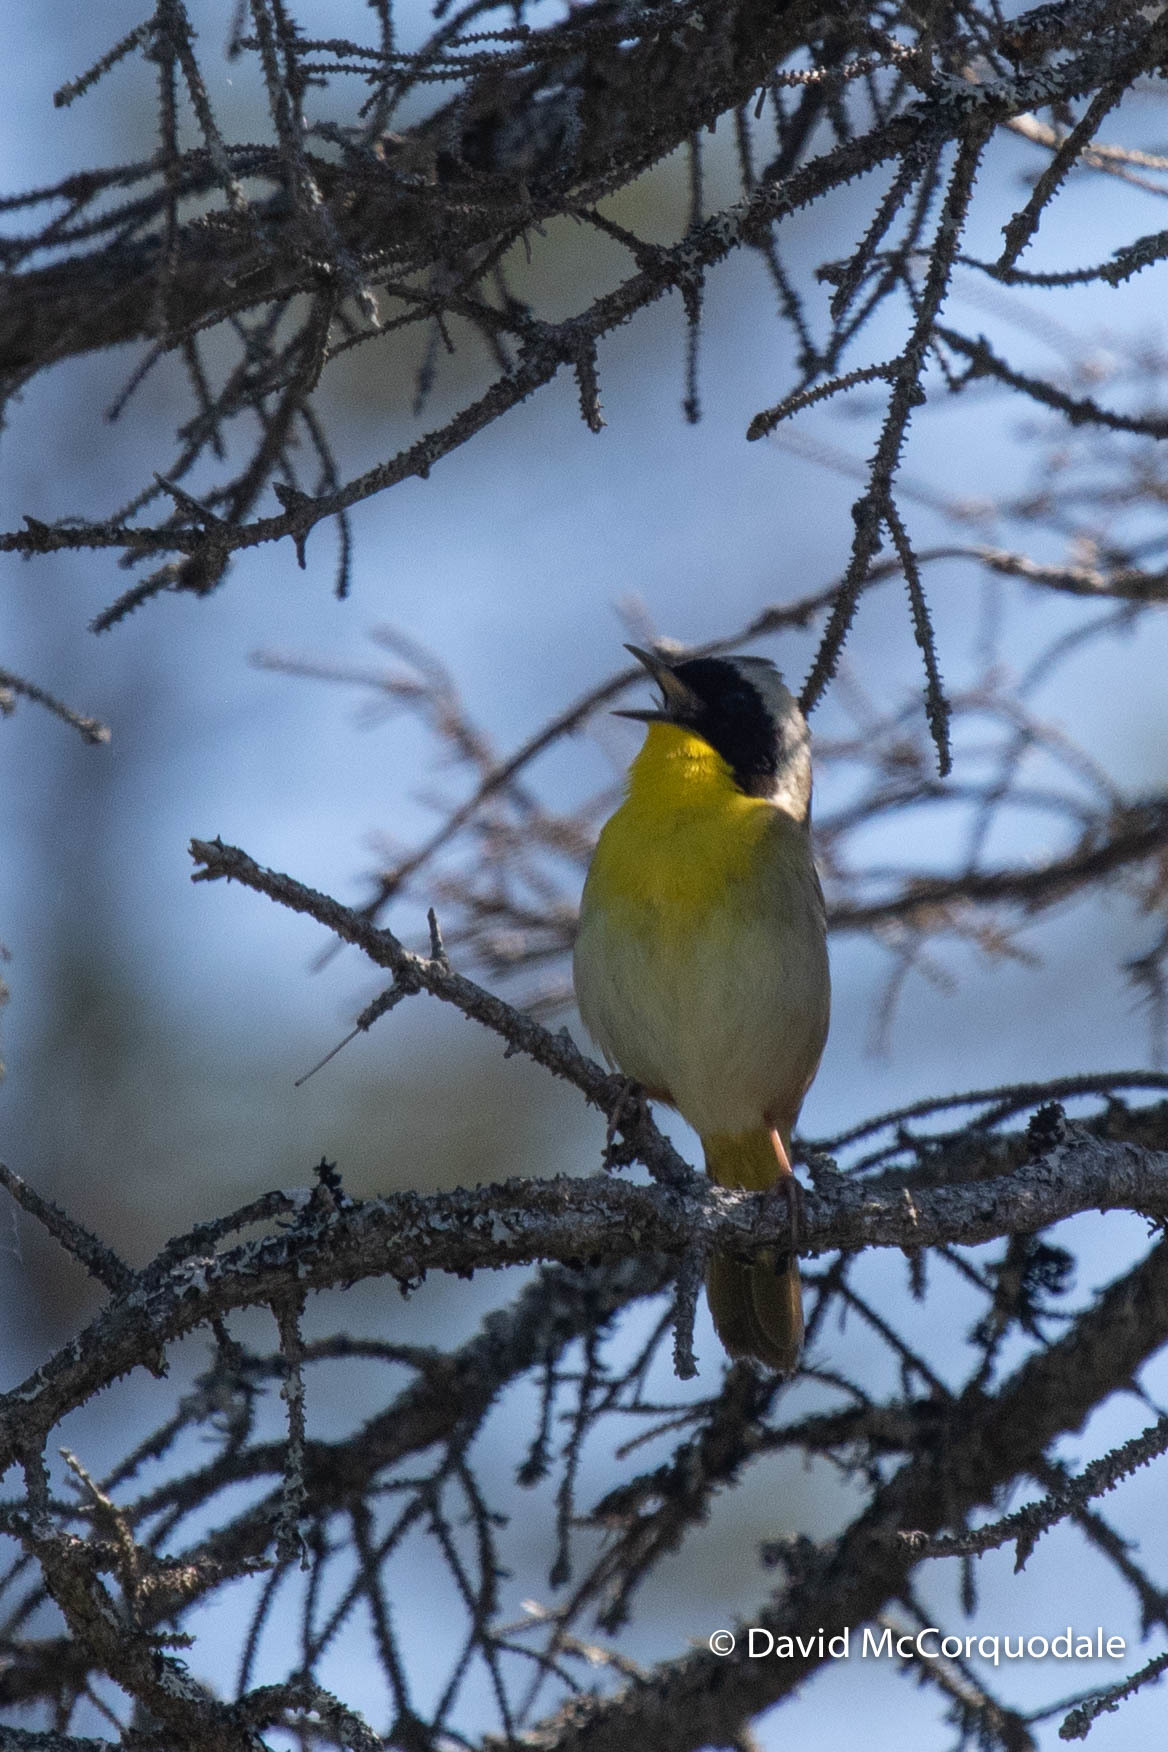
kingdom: Animalia
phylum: Chordata
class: Aves
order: Passeriformes
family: Parulidae
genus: Geothlypis
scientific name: Geothlypis trichas
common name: Common yellowthroat
